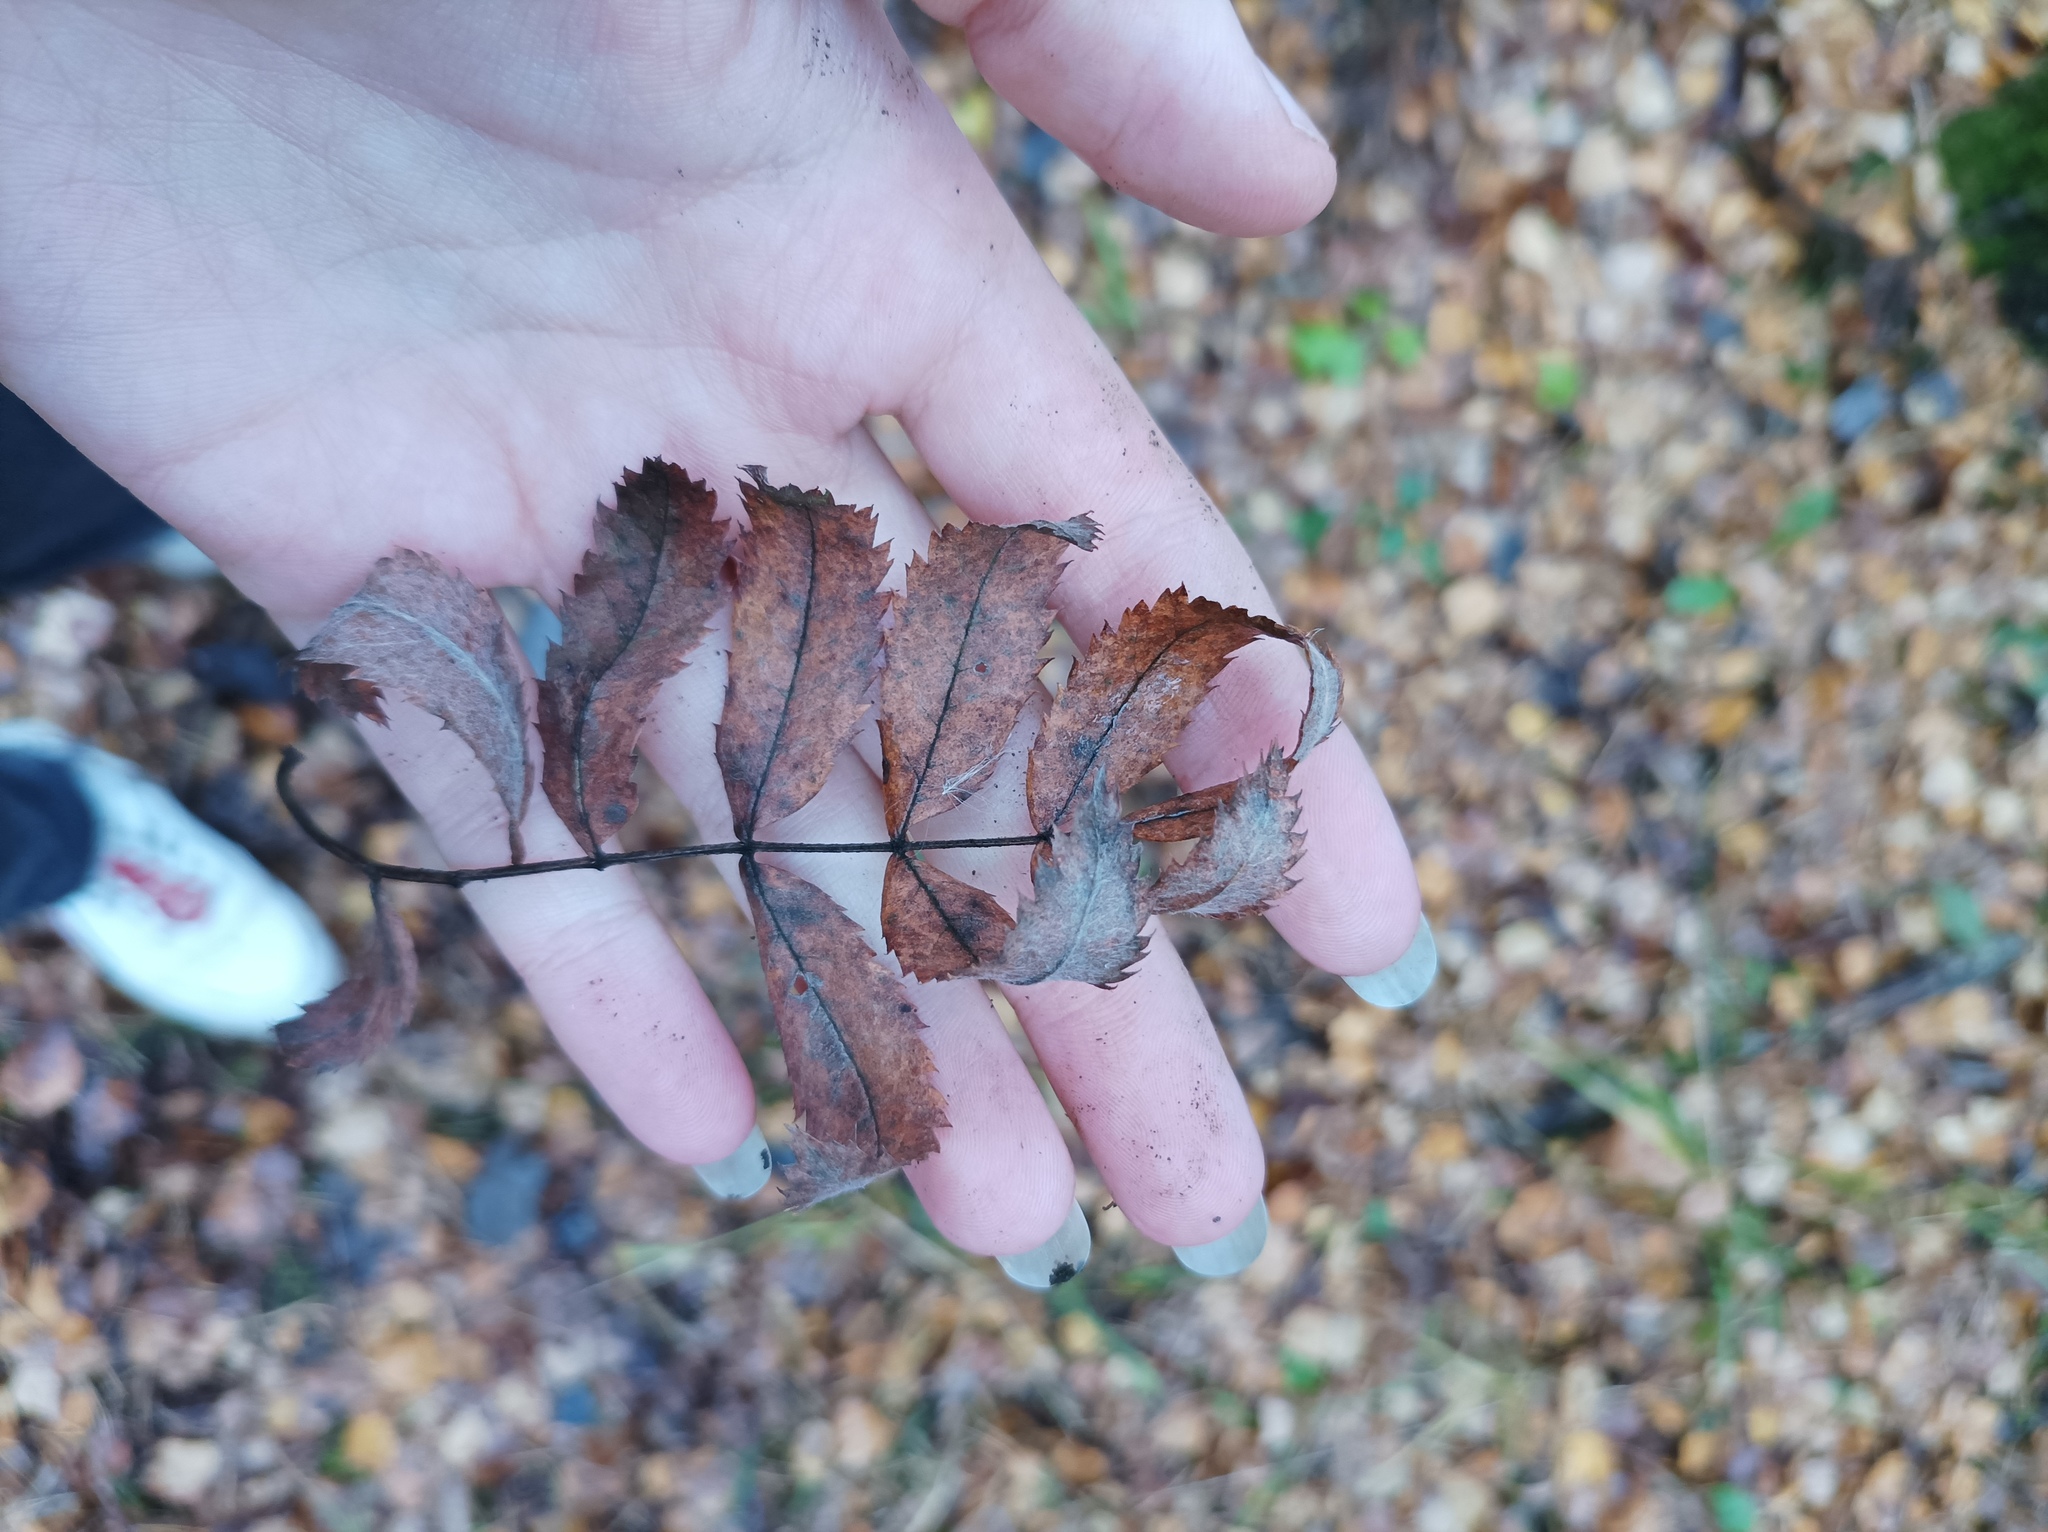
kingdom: Plantae
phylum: Tracheophyta
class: Magnoliopsida
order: Rosales
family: Rosaceae
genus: Sorbus
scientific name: Sorbus aucuparia
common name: Rowan
